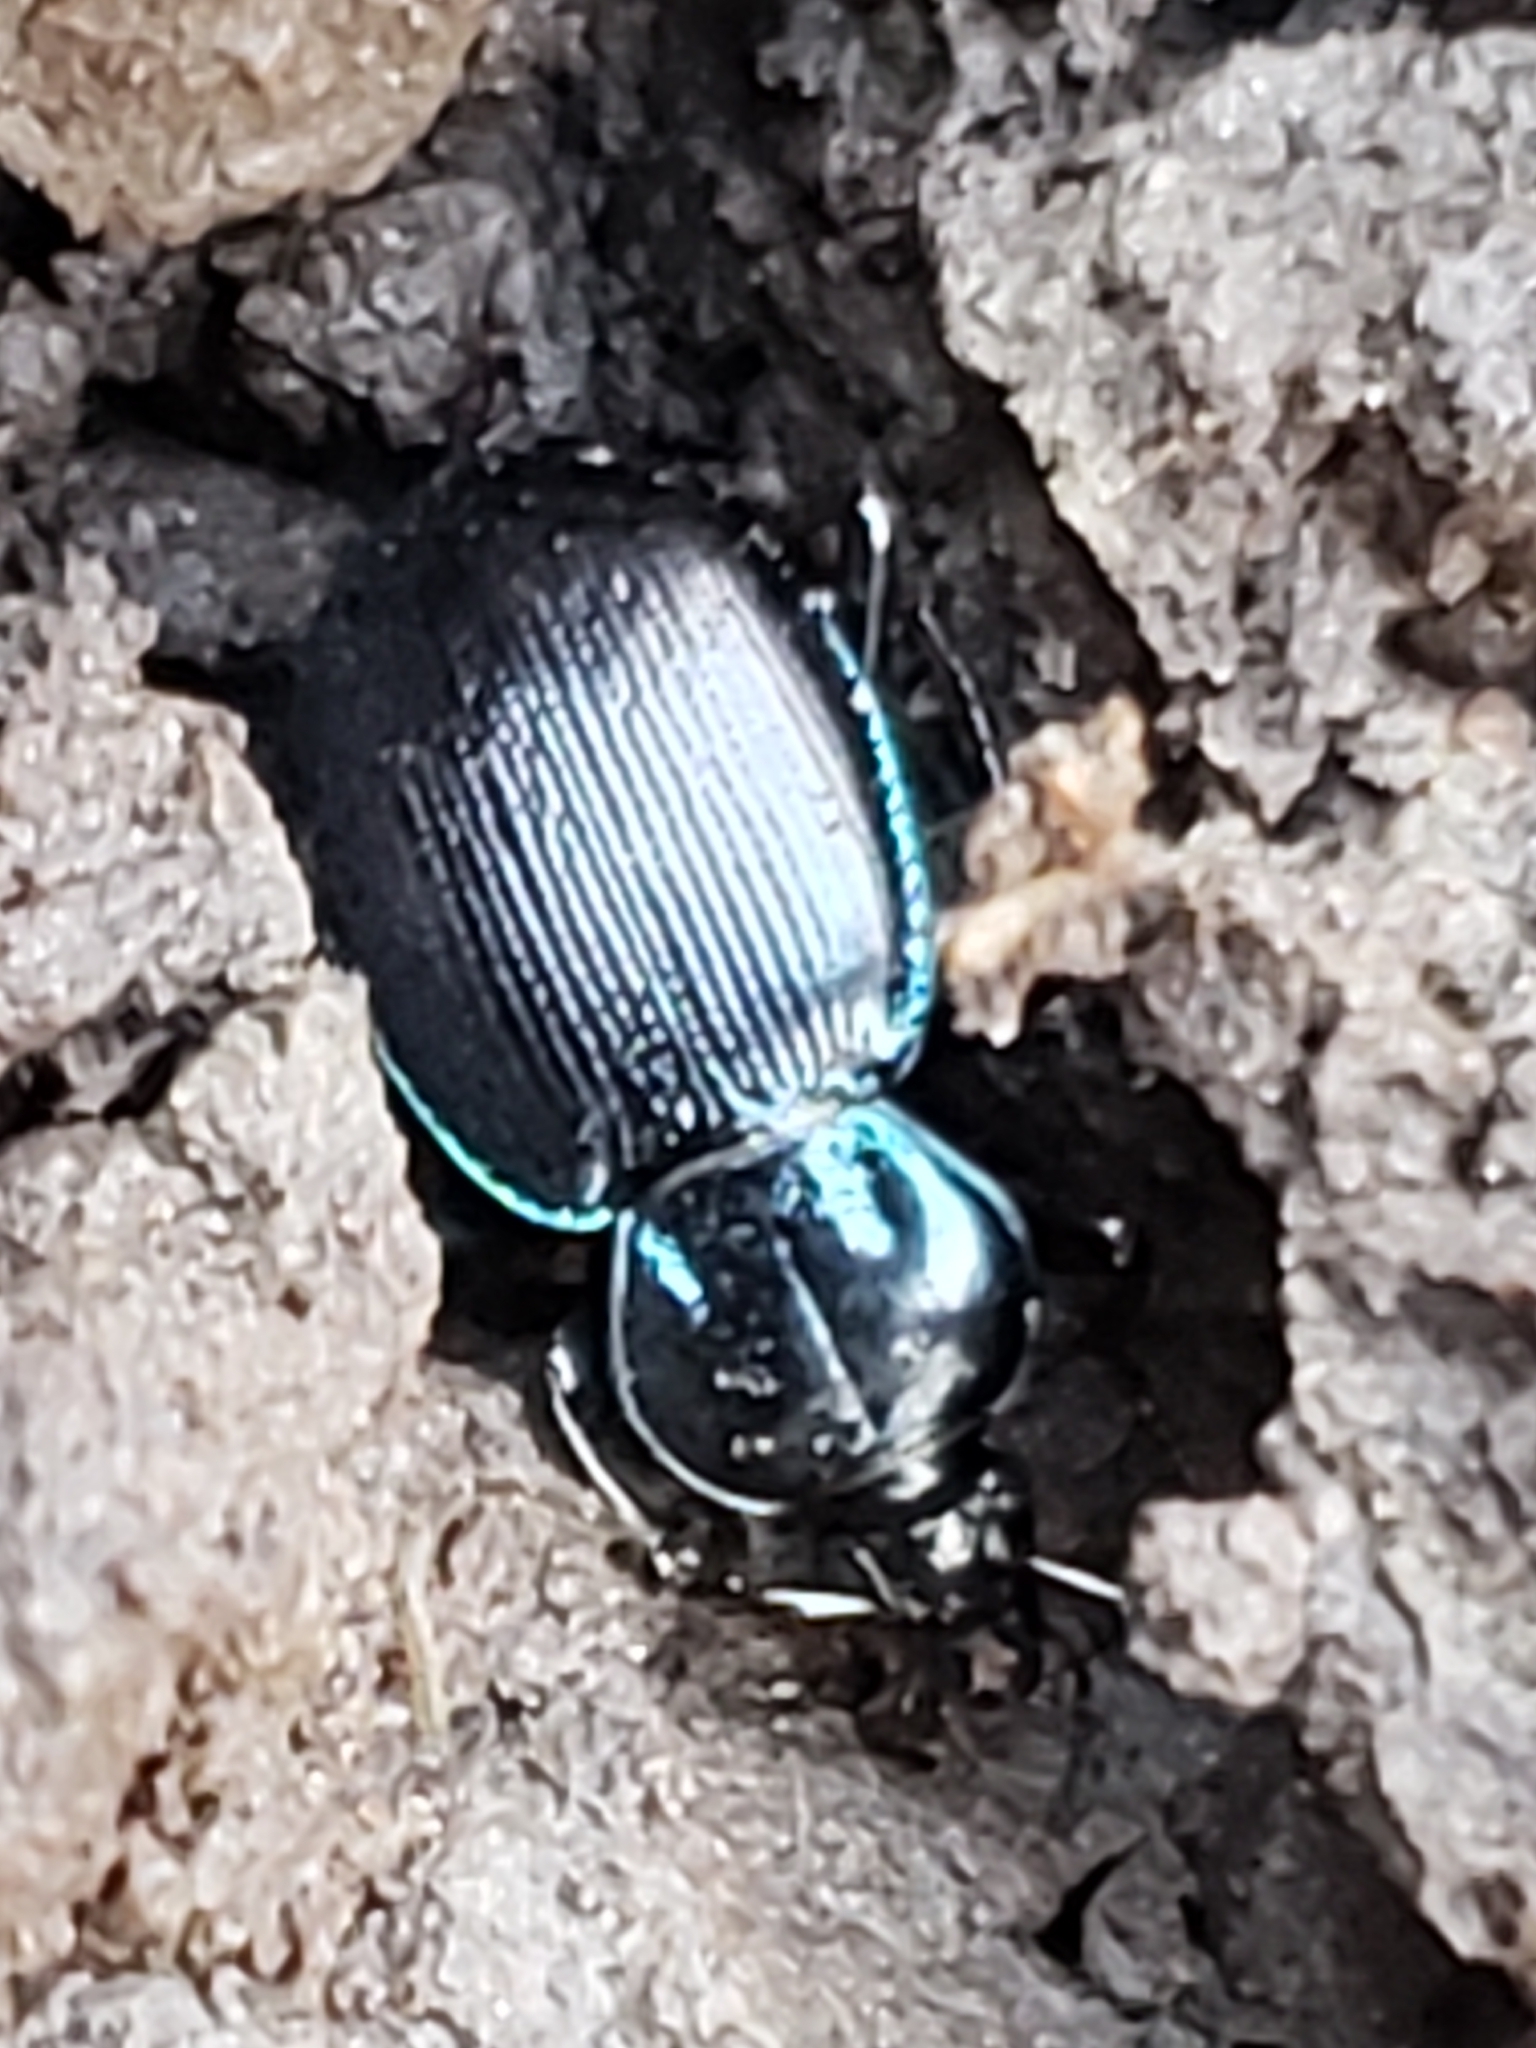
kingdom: Animalia
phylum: Arthropoda
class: Insecta
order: Coleoptera
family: Carabidae
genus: Sphaeroderus
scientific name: Sphaeroderus stenostomus
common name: Small snail-eating ground beetle
